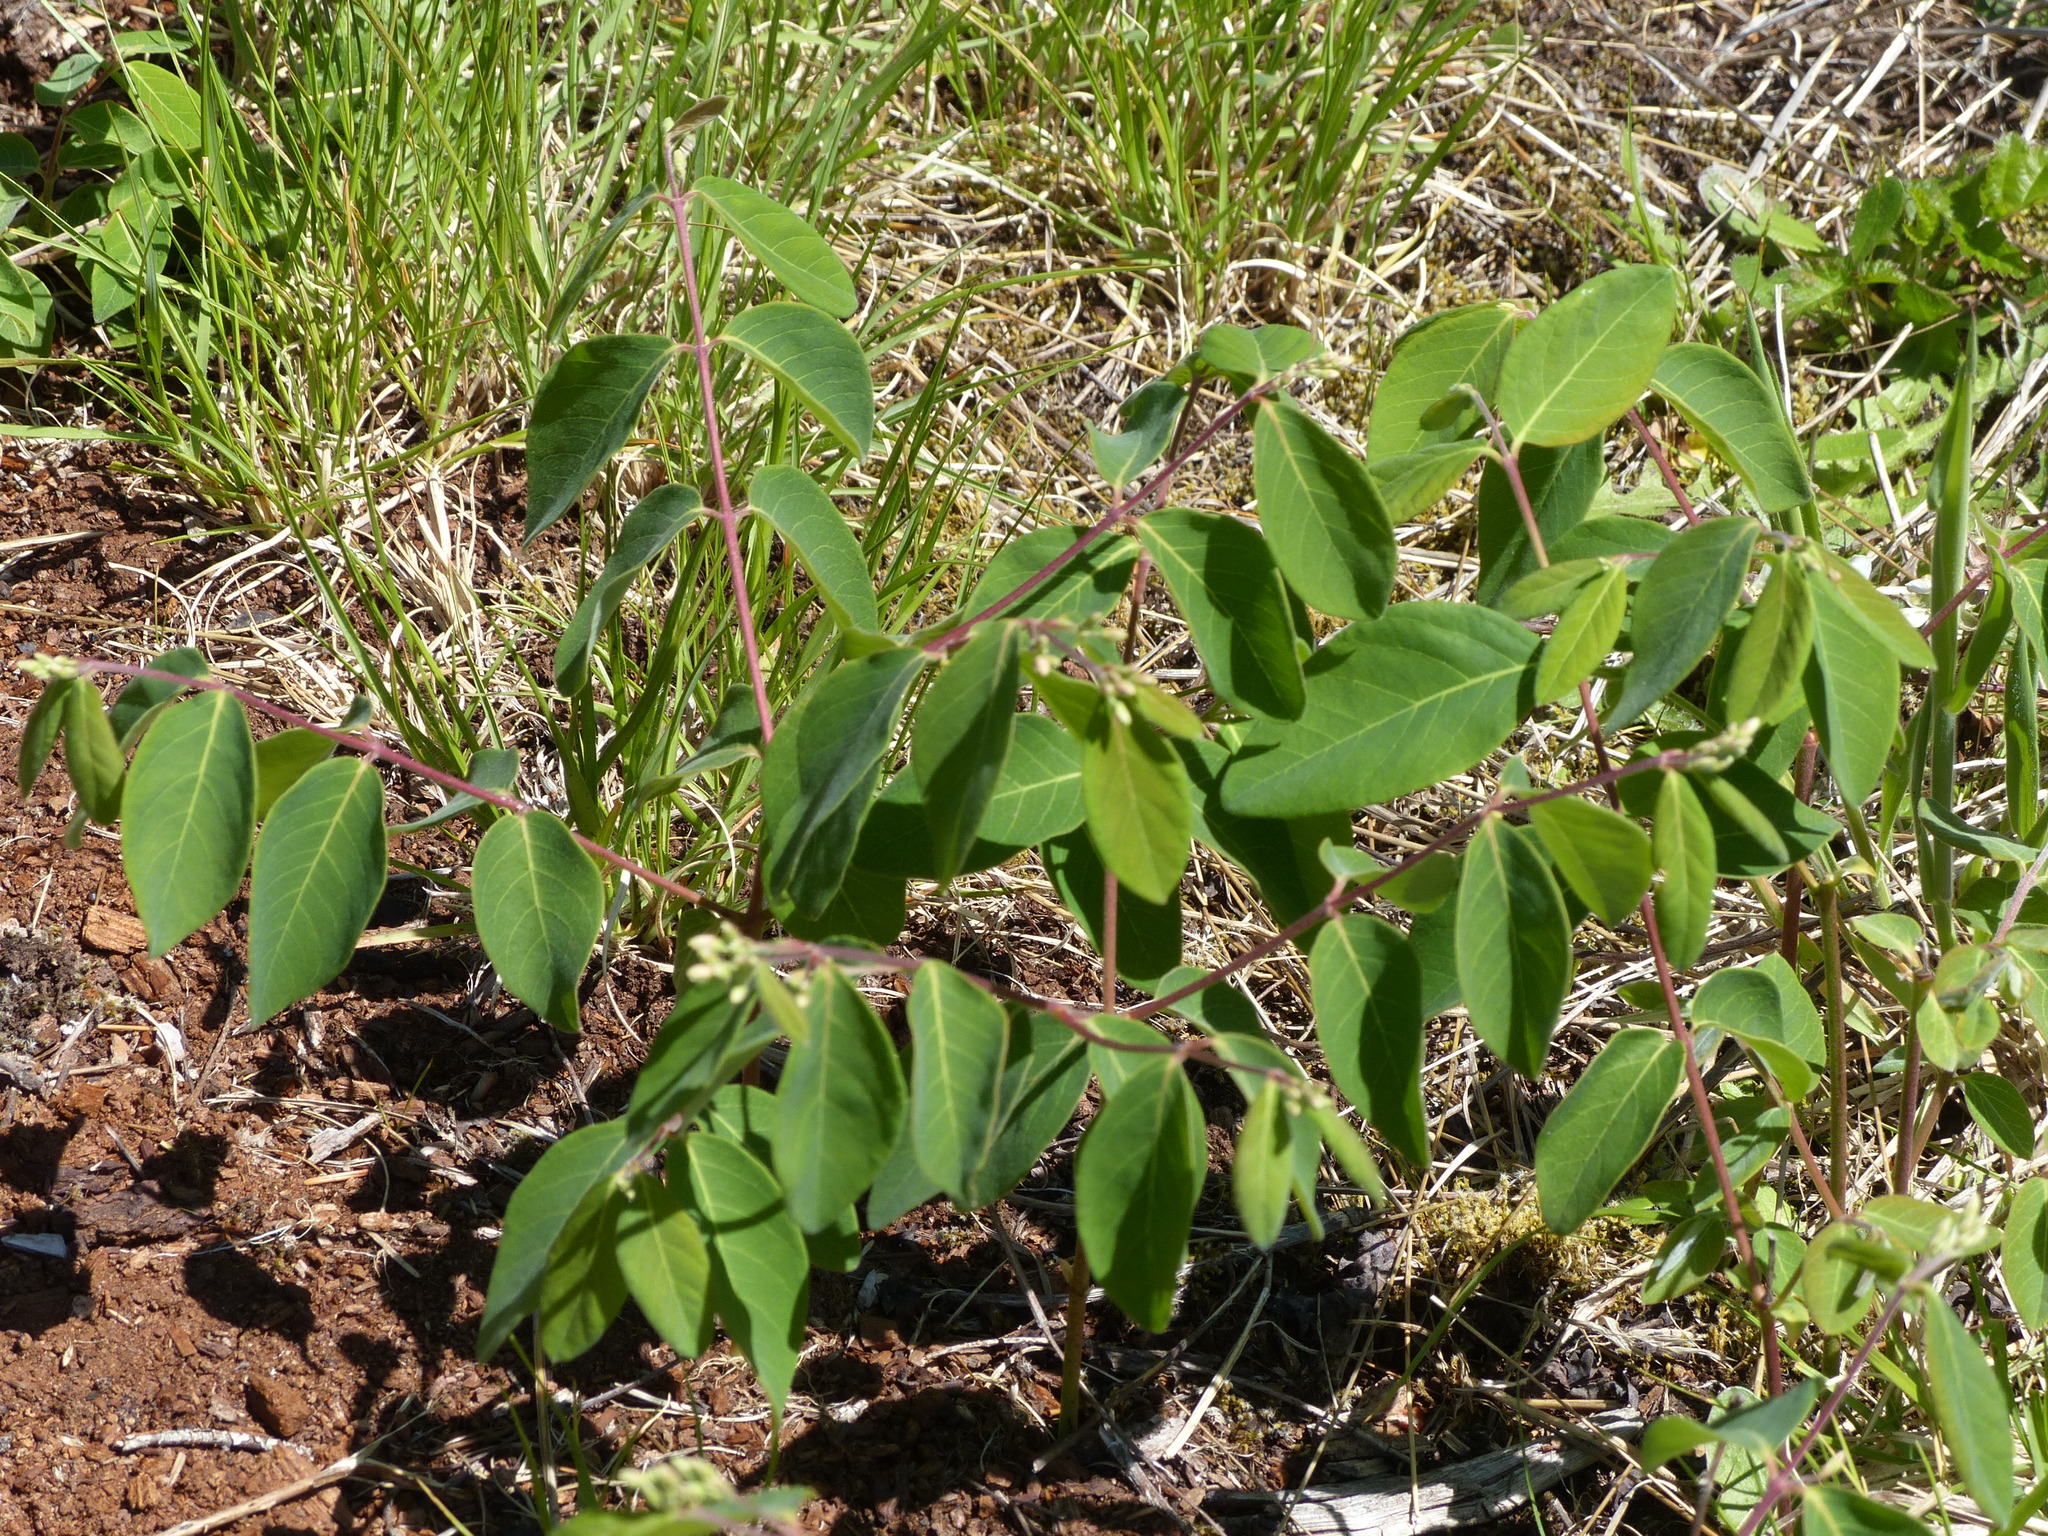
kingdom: Plantae
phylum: Tracheophyta
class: Magnoliopsida
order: Gentianales
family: Apocynaceae
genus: Apocynum
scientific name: Apocynum androsaemifolium
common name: Spreading dogbane
